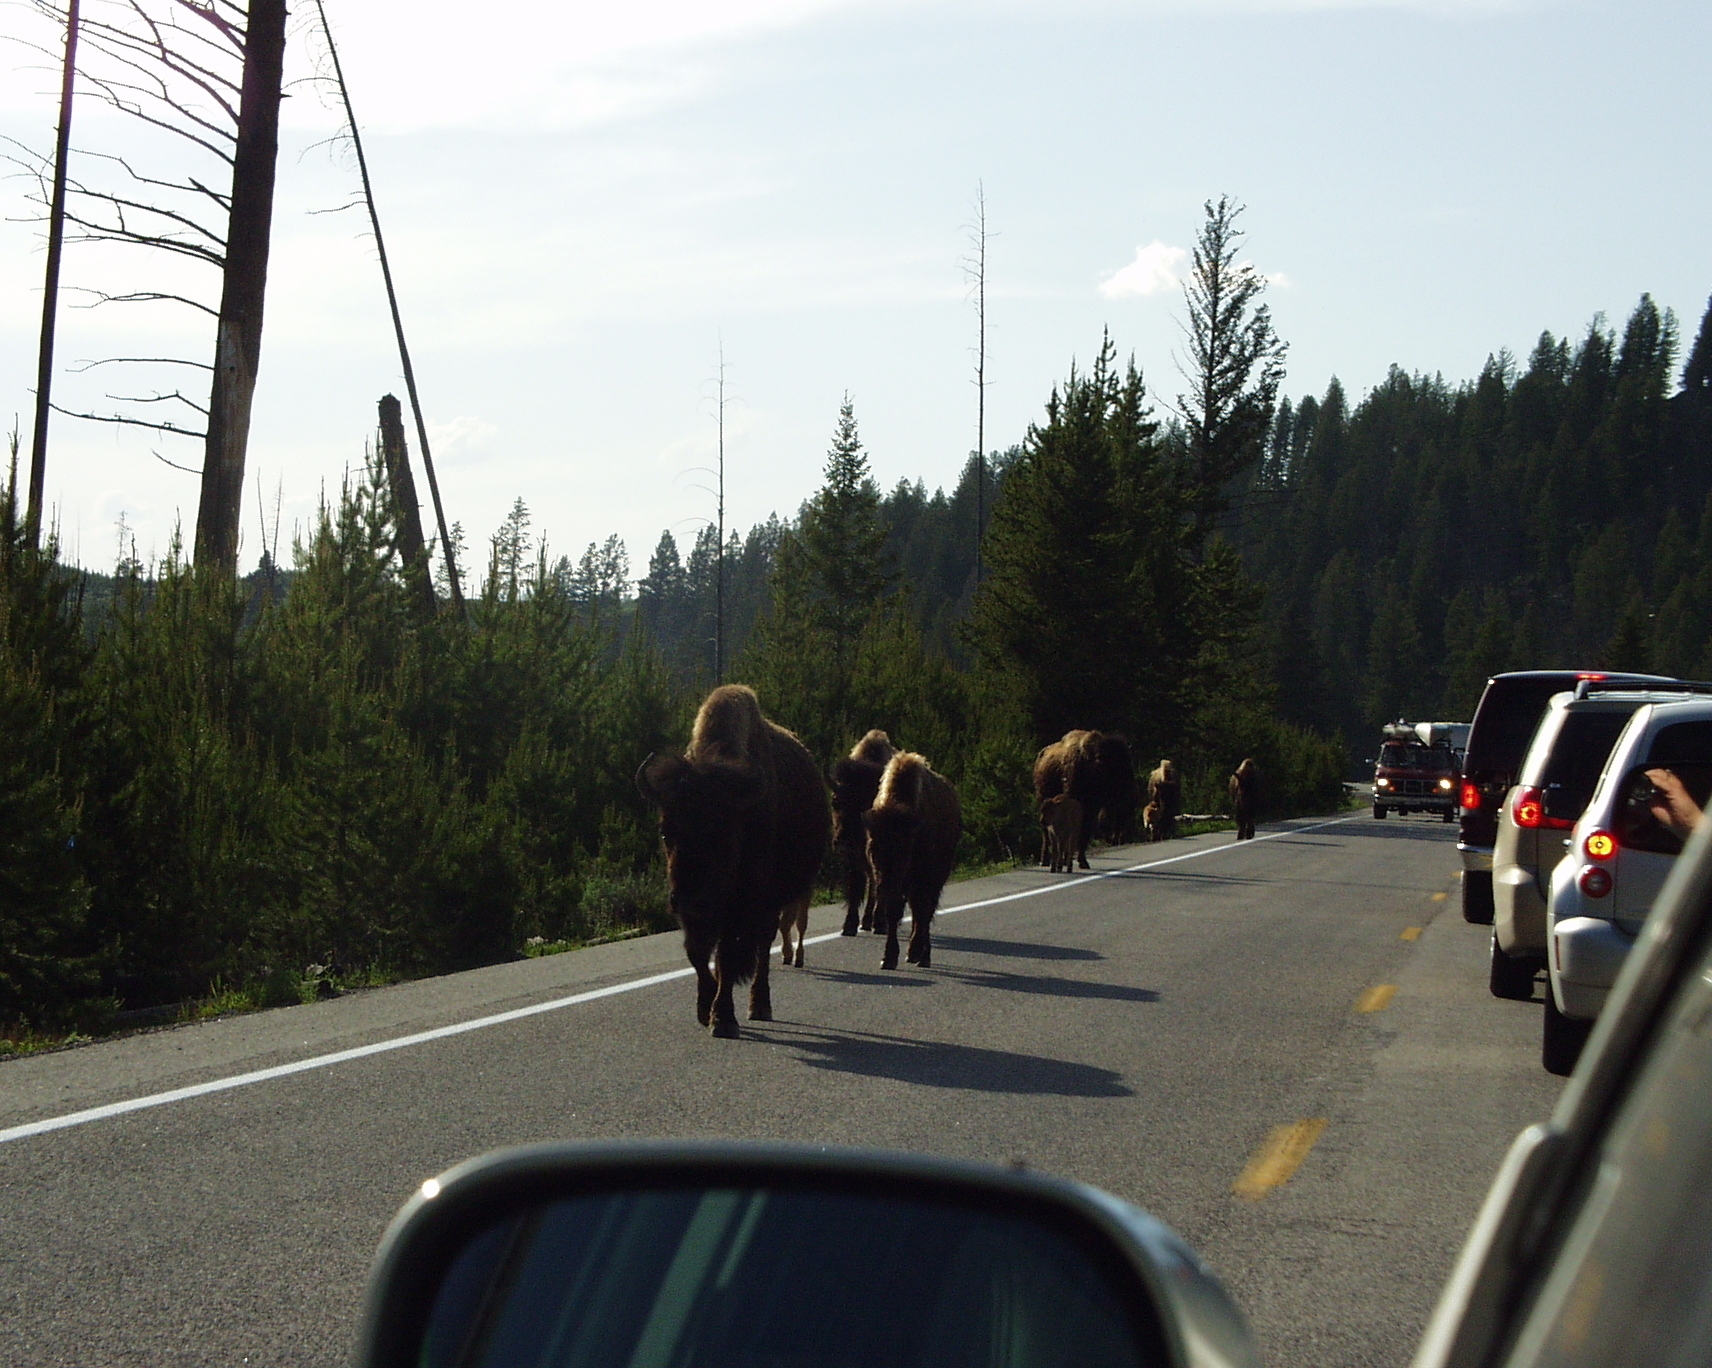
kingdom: Animalia
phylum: Chordata
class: Mammalia
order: Artiodactyla
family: Bovidae
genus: Bison
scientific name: Bison bison
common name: American bison
